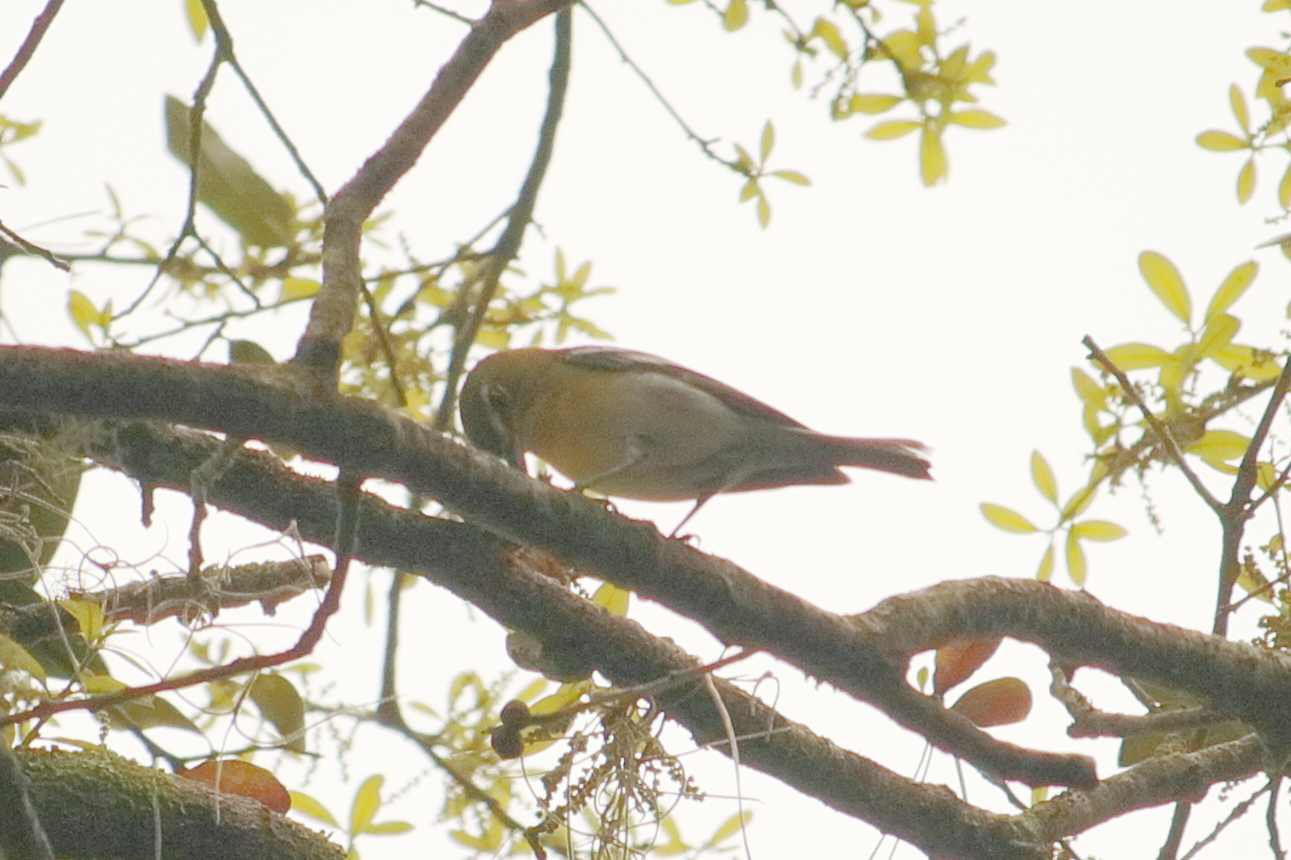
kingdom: Animalia
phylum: Chordata
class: Aves
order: Passeriformes
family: Vireonidae
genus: Vireo
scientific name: Vireo flavifrons
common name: Yellow-throated vireo
